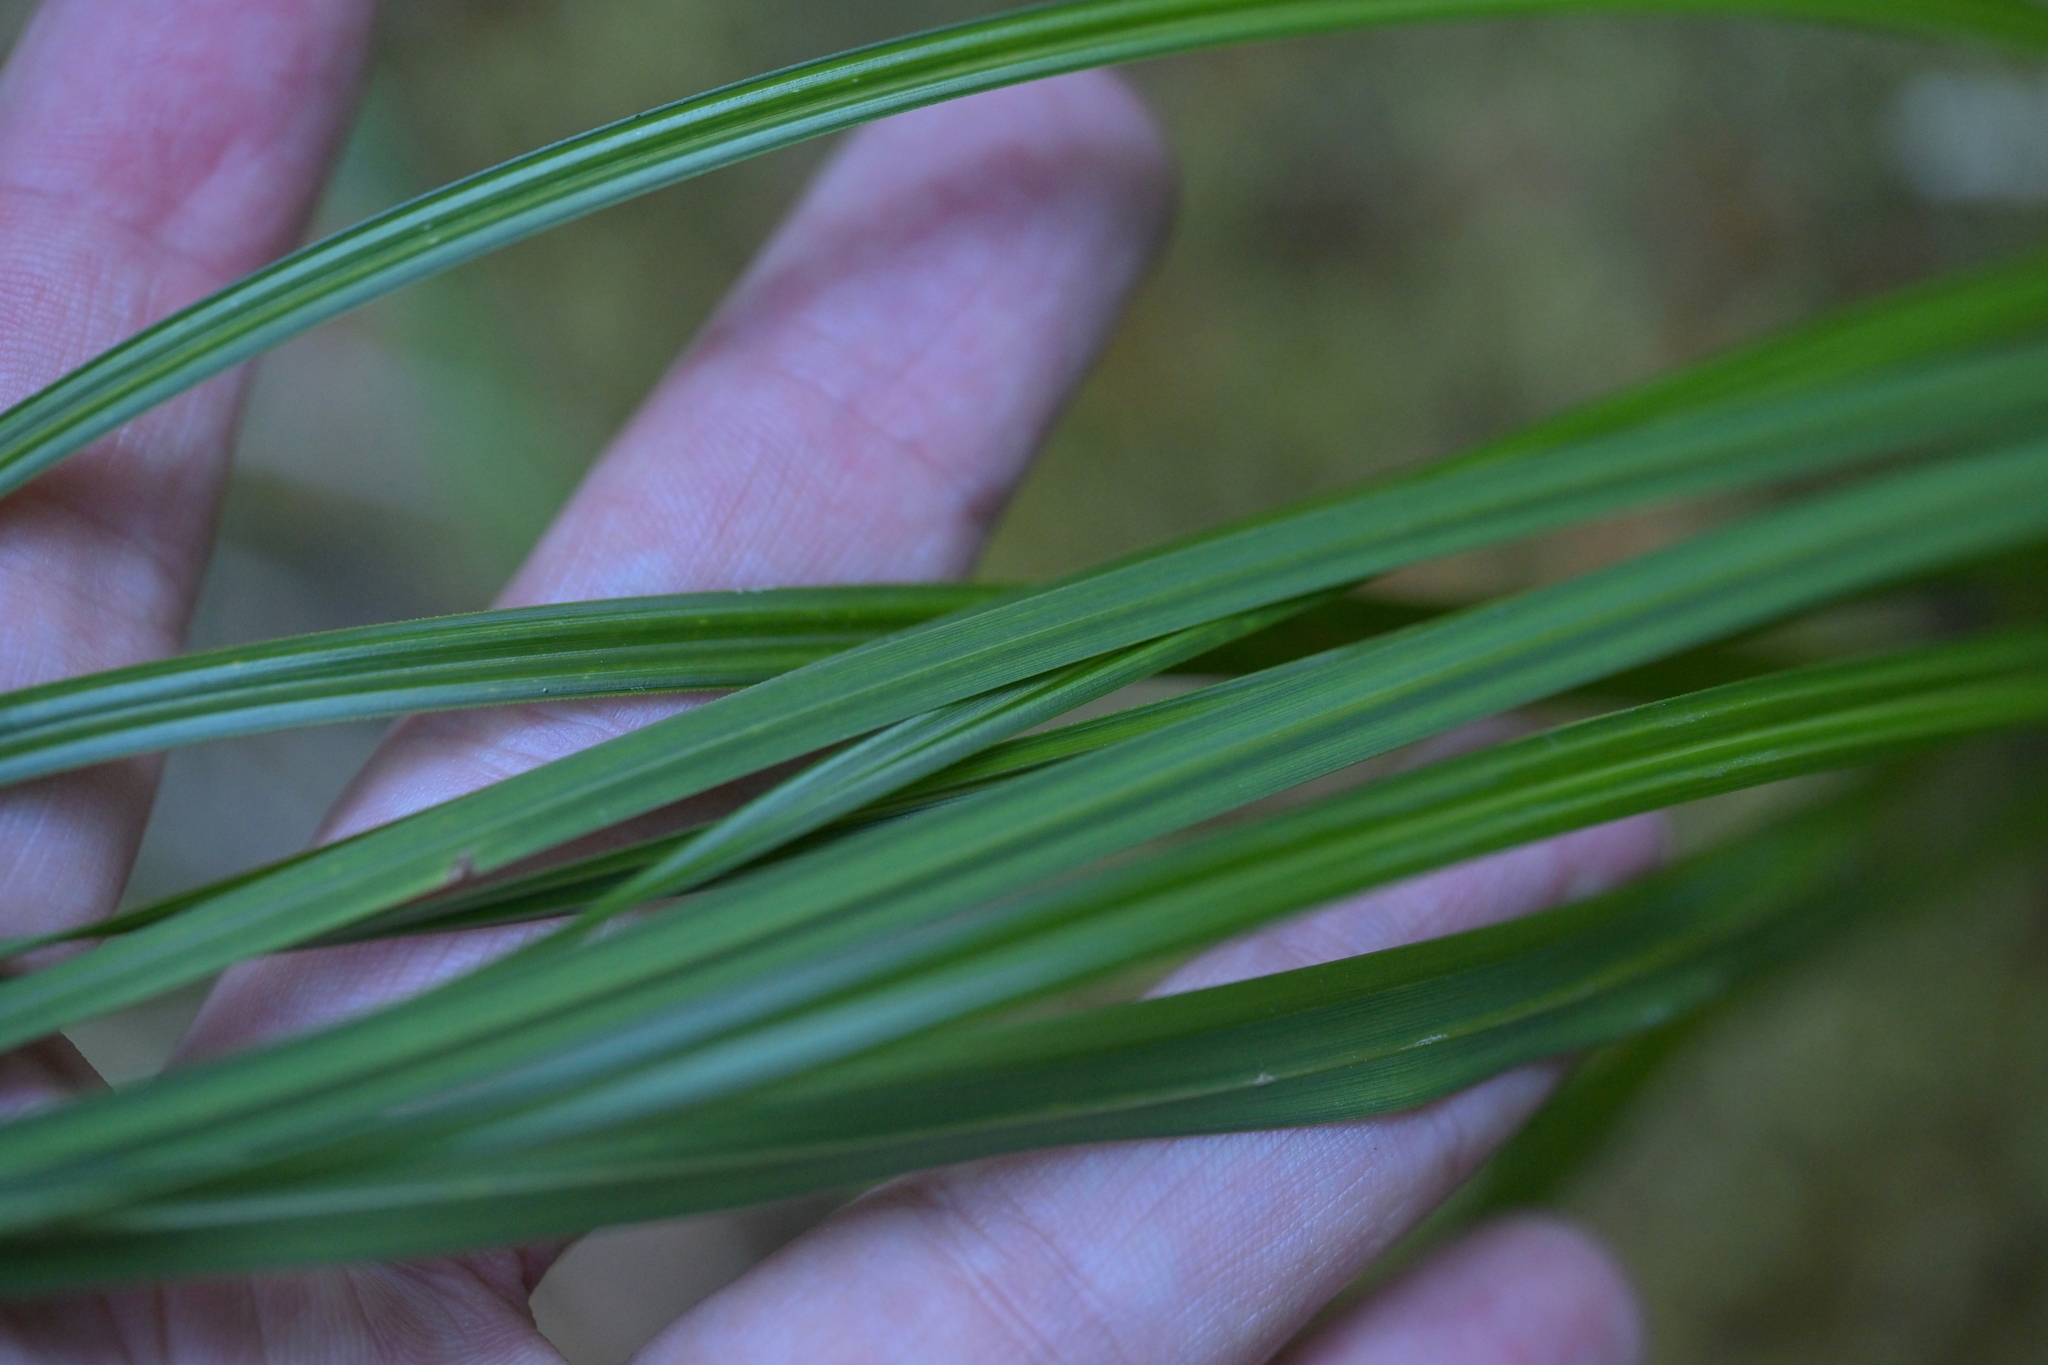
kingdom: Plantae
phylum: Tracheophyta
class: Liliopsida
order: Poales
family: Cyperaceae
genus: Carex
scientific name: Carex geminata
